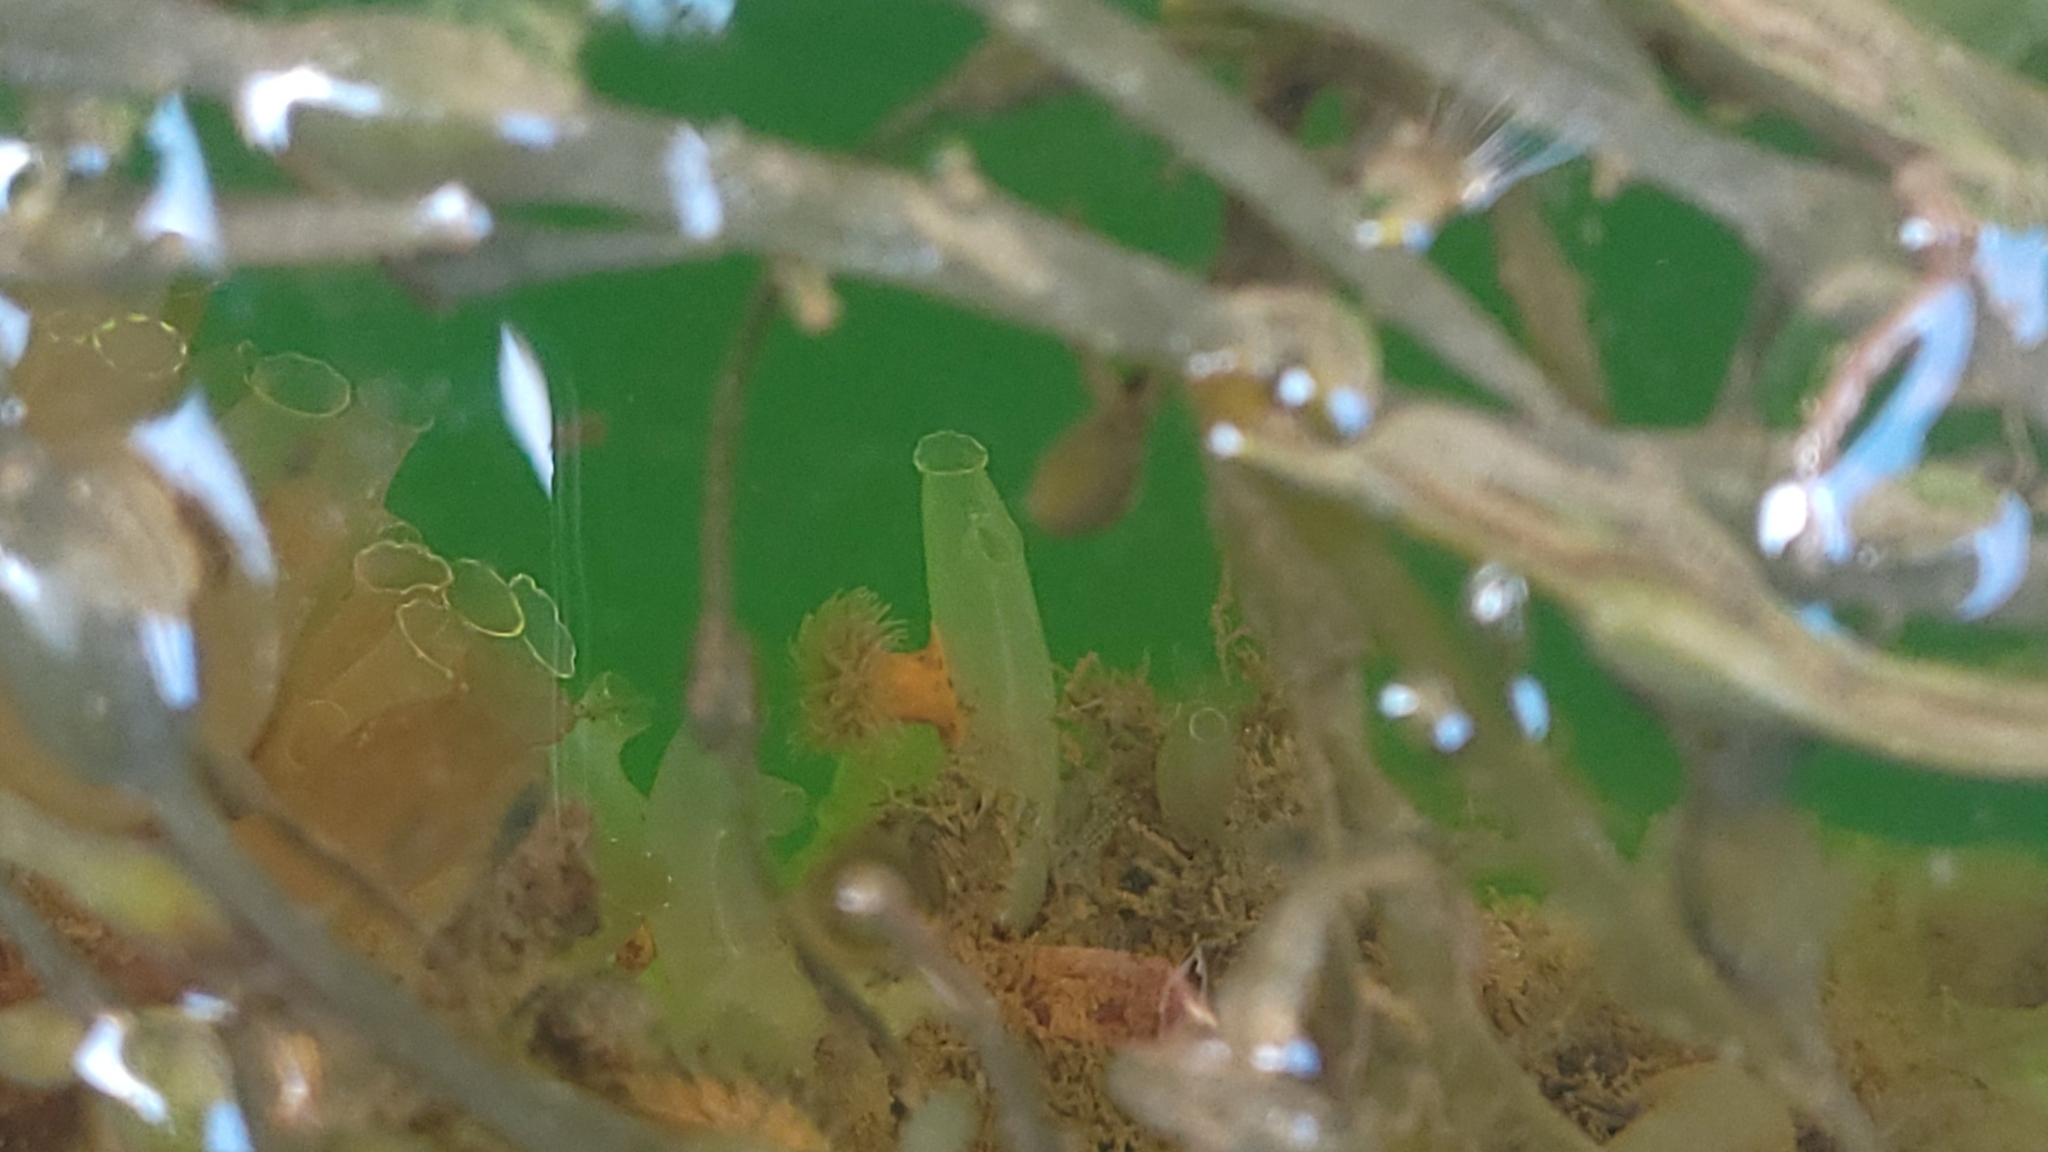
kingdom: Animalia
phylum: Chordata
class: Ascidiacea
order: Phlebobranchia
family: Cionidae
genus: Ciona
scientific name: Ciona intestinalis
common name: Vase tunicate
